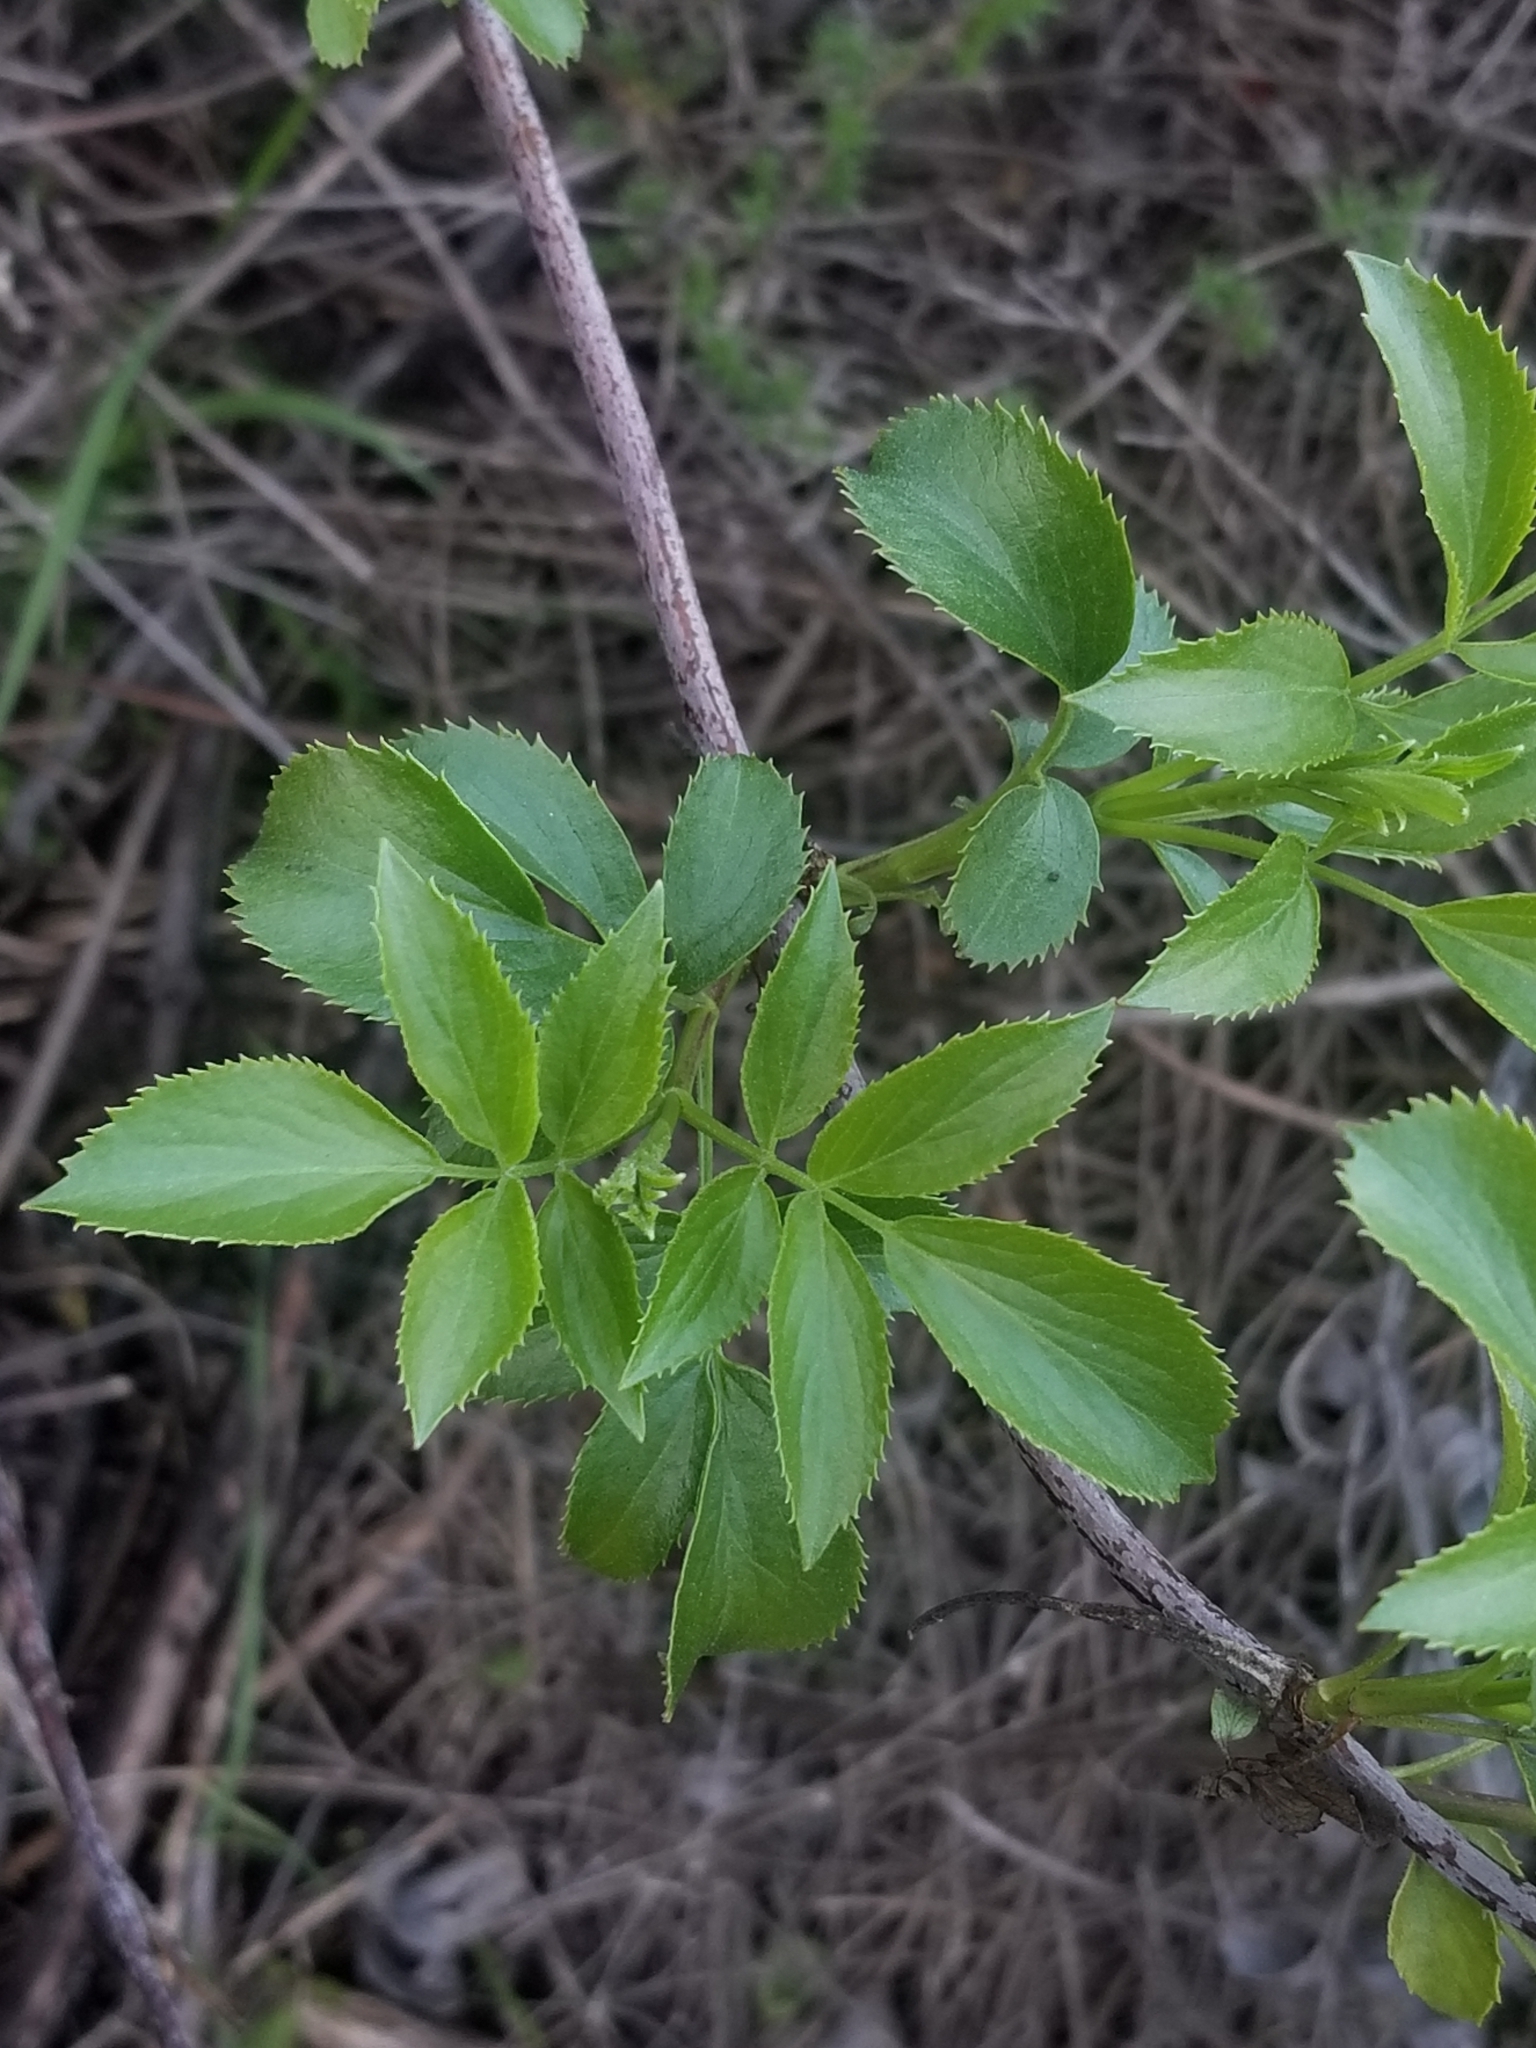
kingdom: Plantae
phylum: Tracheophyta
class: Magnoliopsida
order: Dipsacales
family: Viburnaceae
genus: Sambucus
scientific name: Sambucus cerulea
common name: Blue elder
